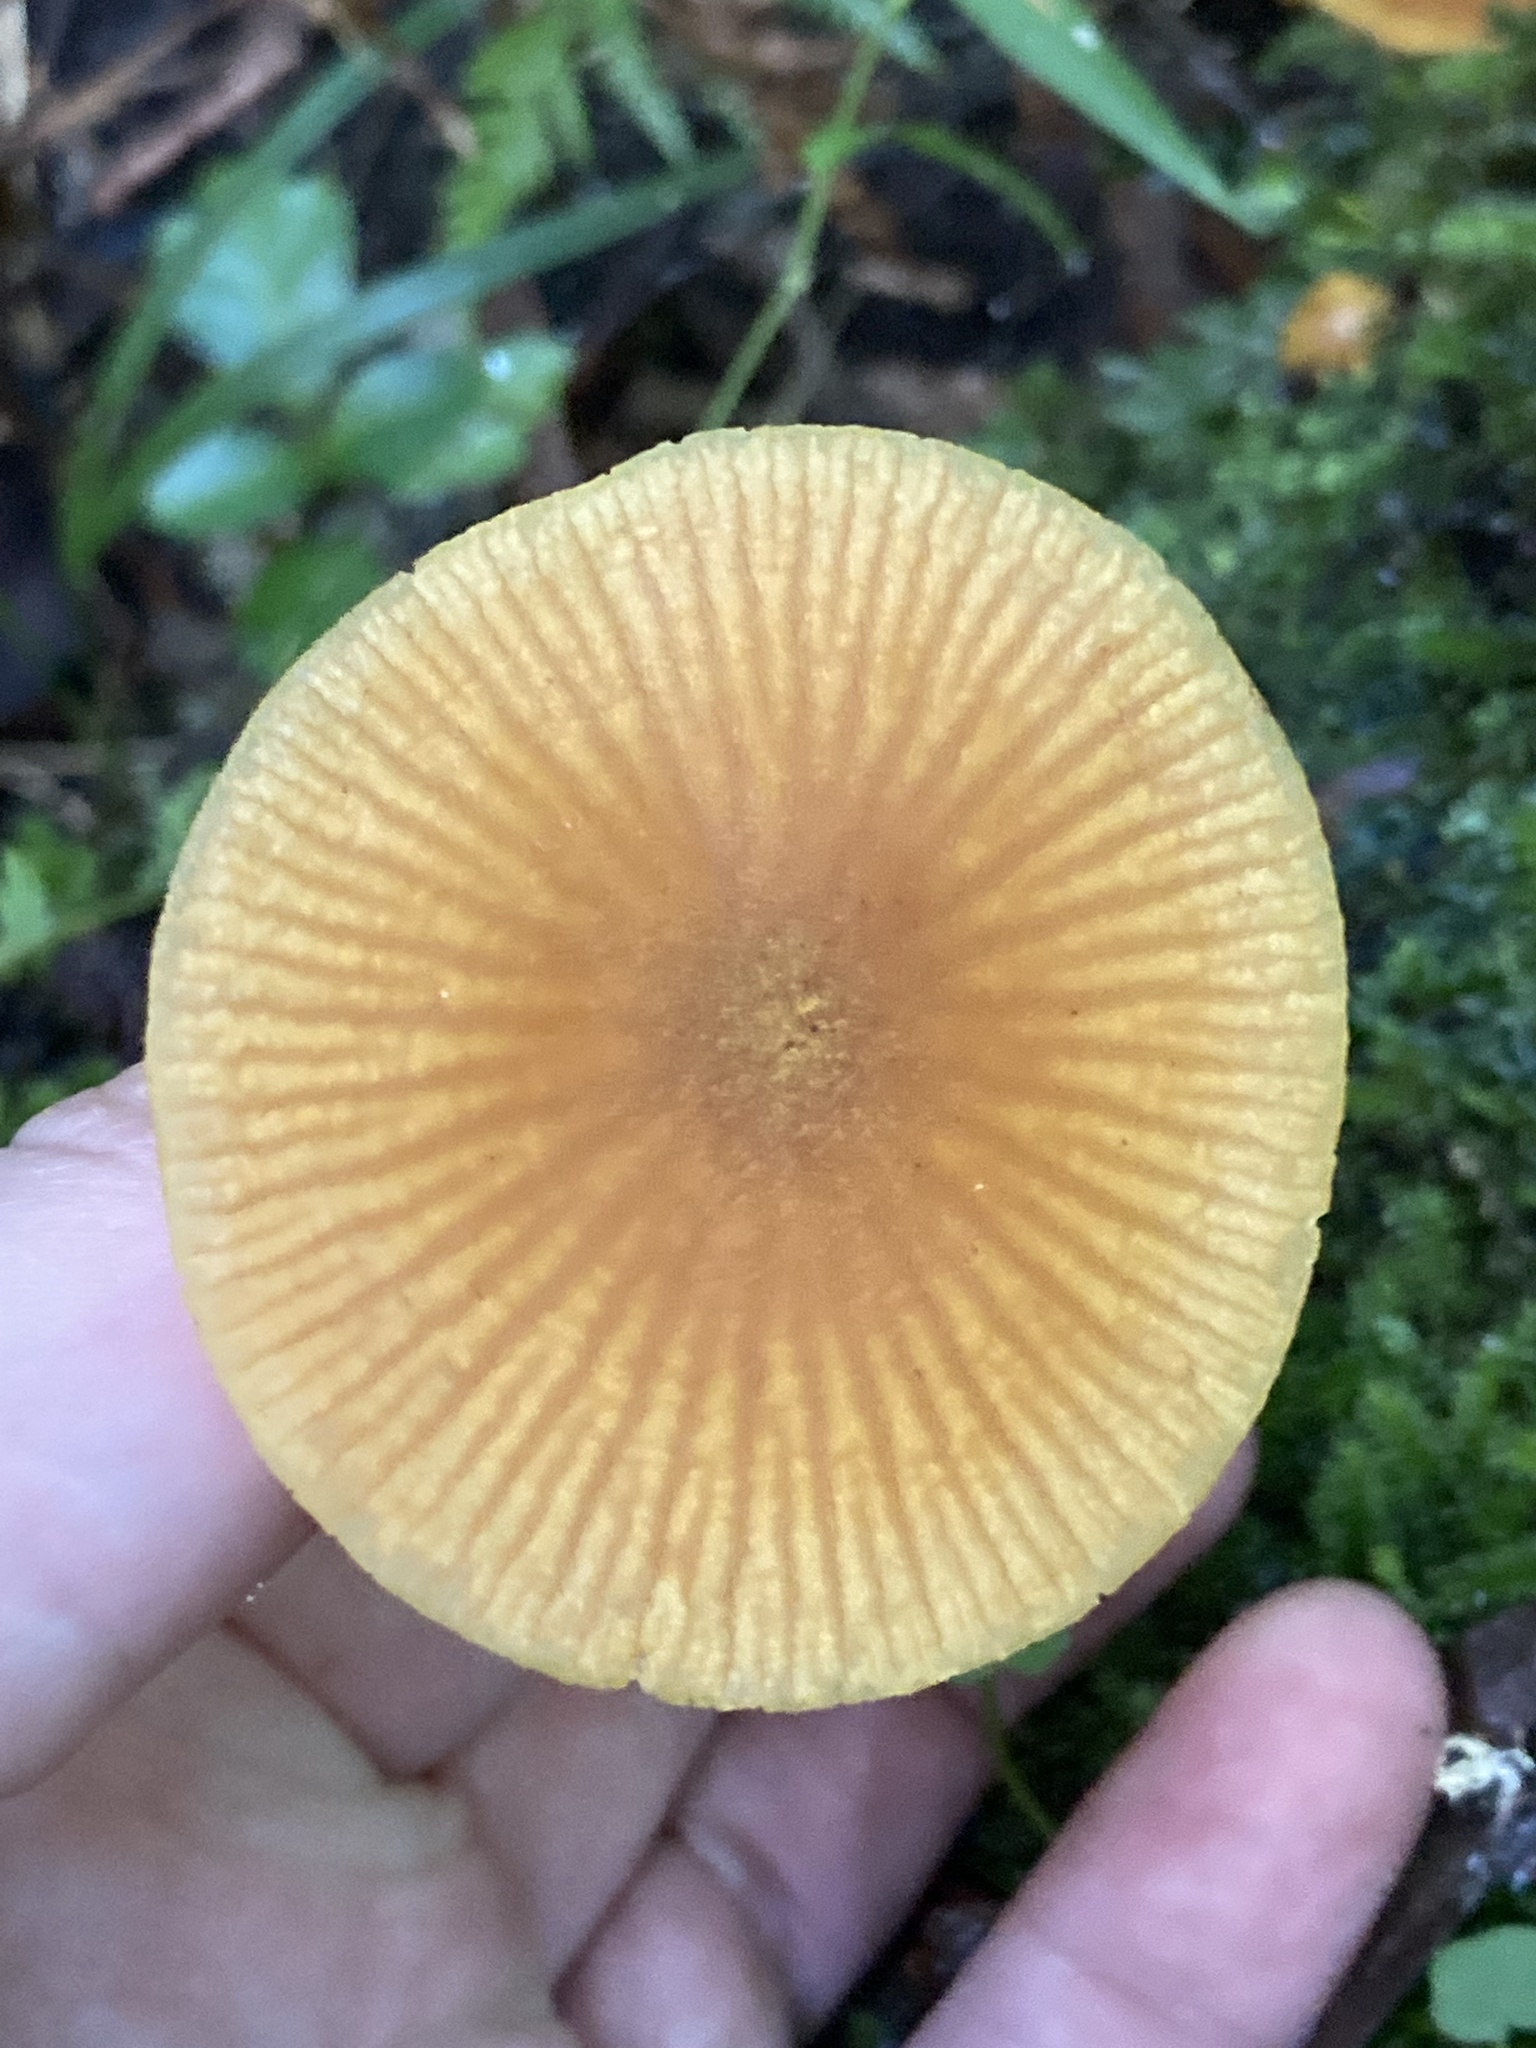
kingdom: Fungi
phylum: Basidiomycota
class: Agaricomycetes
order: Agaricales
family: Mycenaceae
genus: Heimiomyces
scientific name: Heimiomyces velutipes
